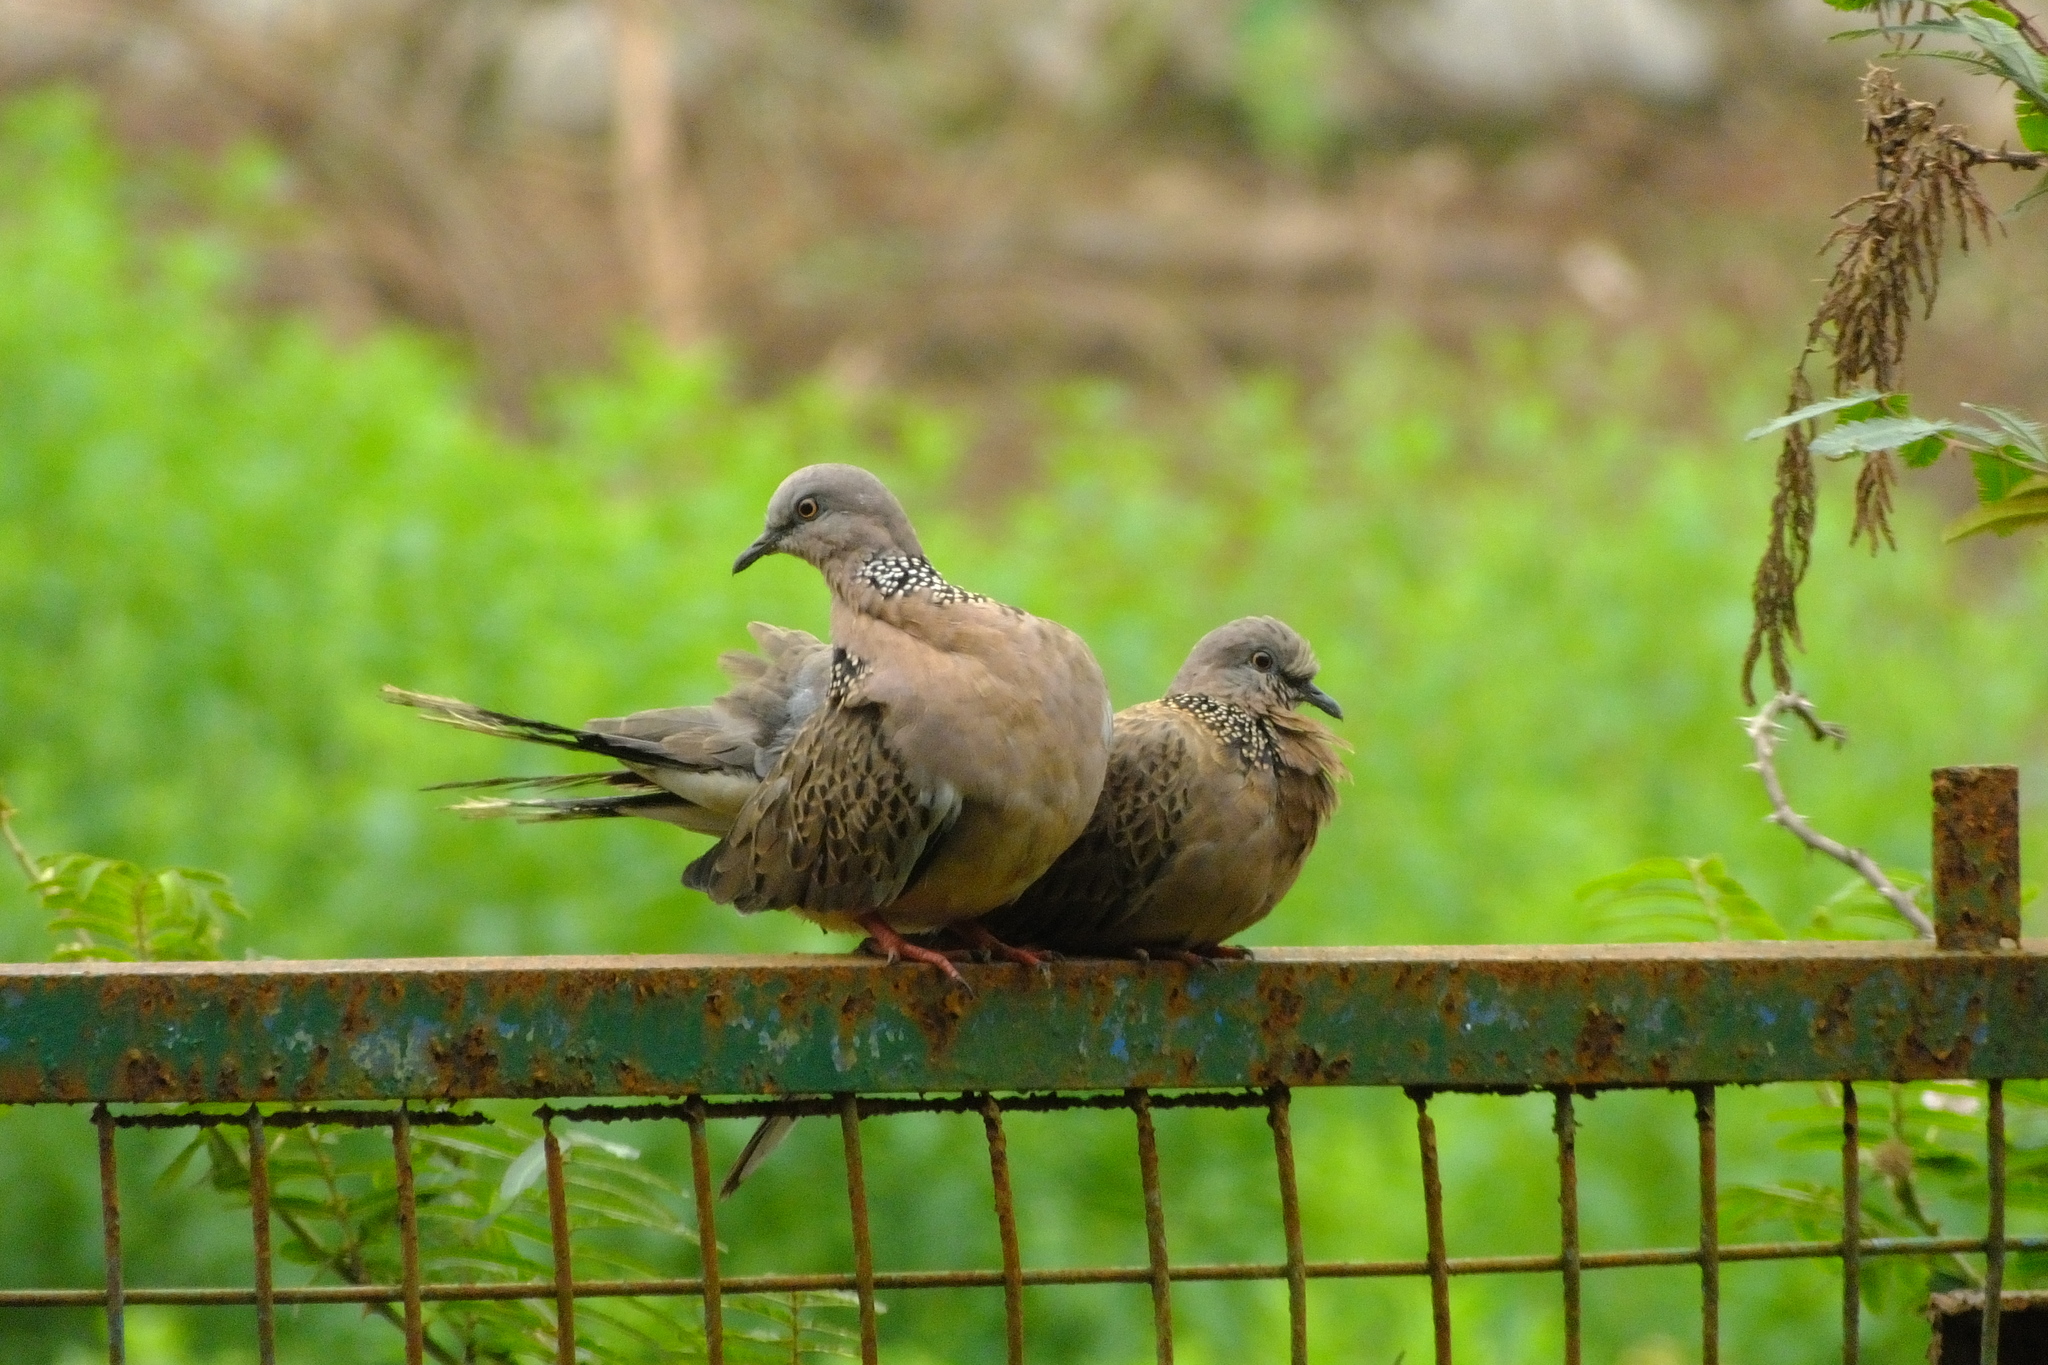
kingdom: Animalia
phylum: Chordata
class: Aves
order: Columbiformes
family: Columbidae
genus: Spilopelia
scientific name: Spilopelia chinensis
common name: Spotted dove
